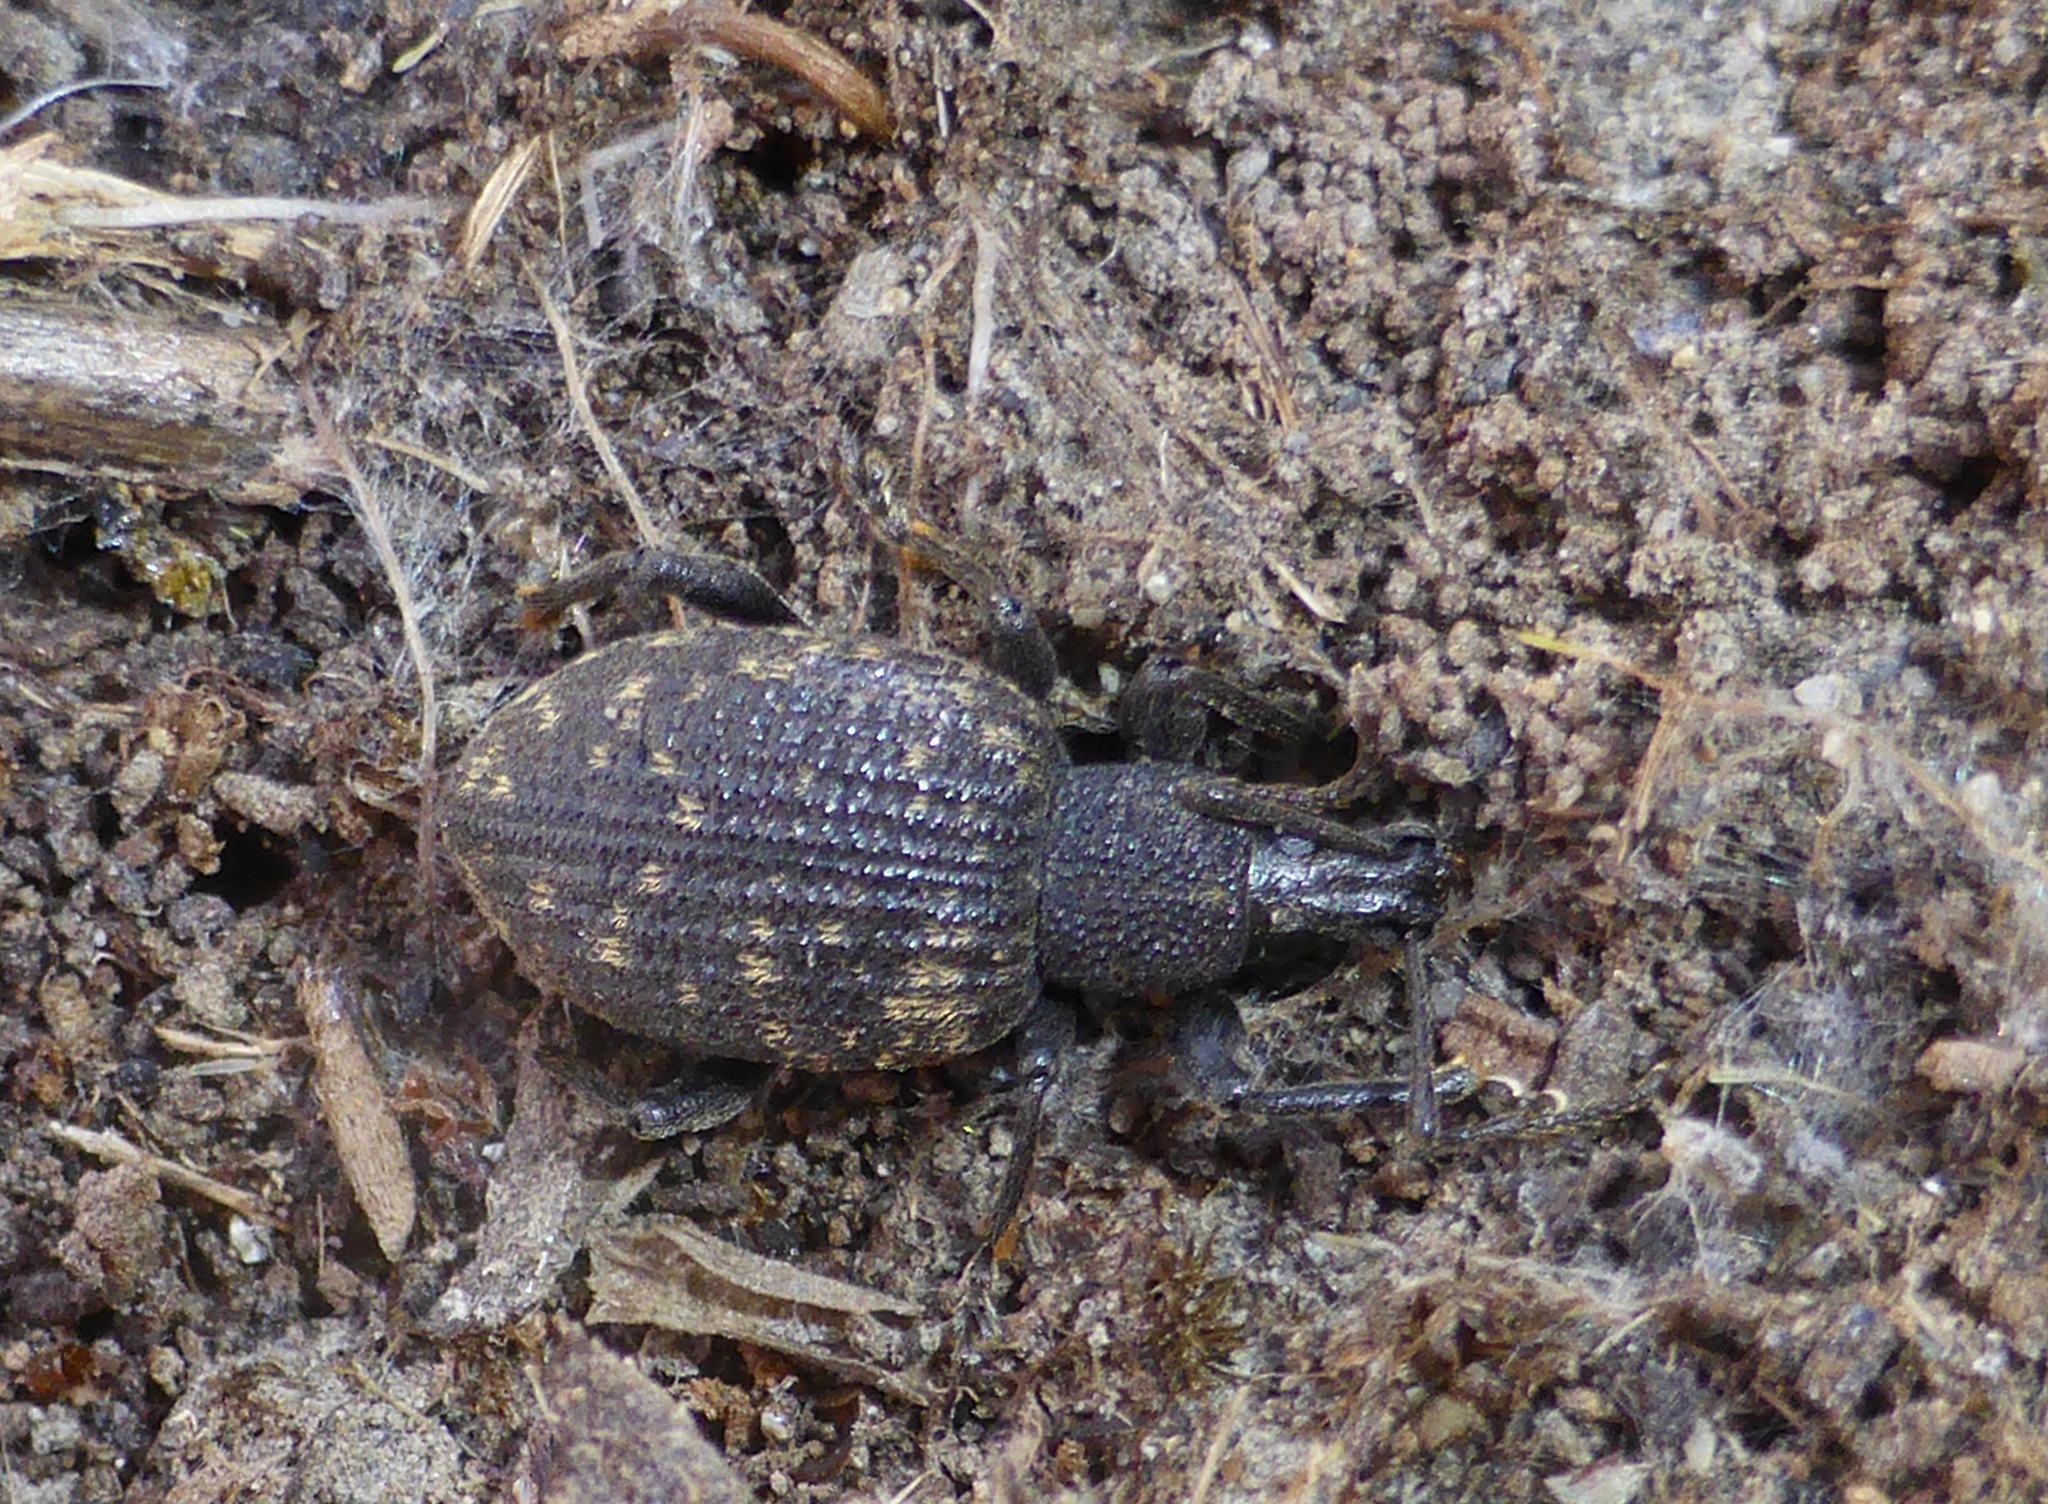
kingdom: Animalia
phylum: Arthropoda
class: Insecta
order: Coleoptera
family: Curculionidae
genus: Otiorhynchus
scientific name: Otiorhynchus sulcatus
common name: Black vine weevil
